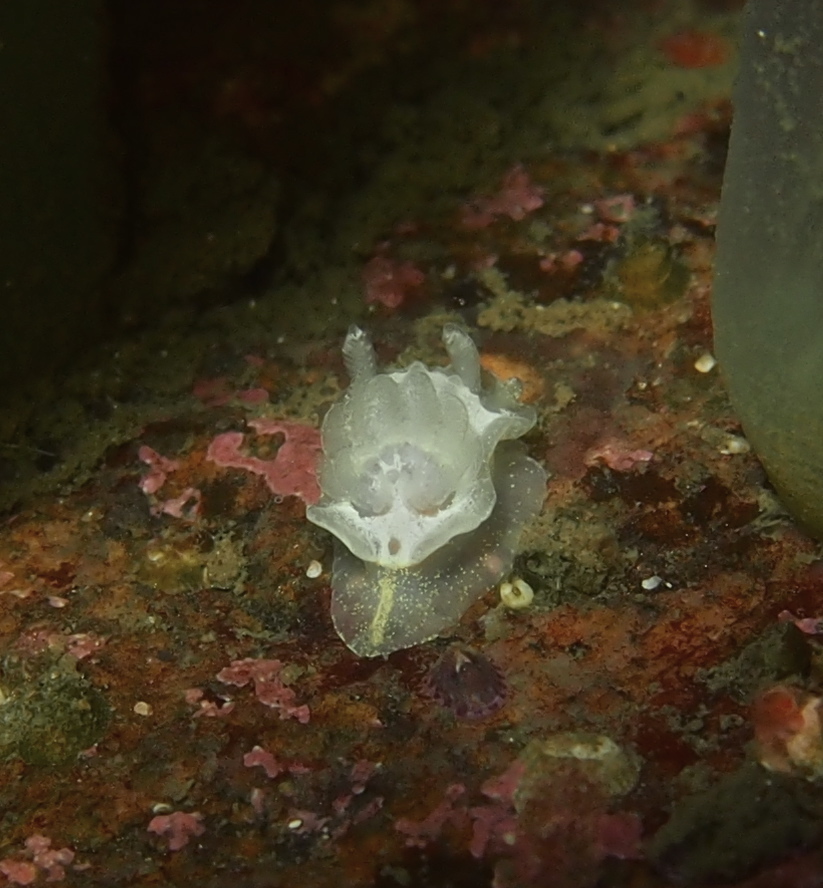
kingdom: Animalia
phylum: Mollusca
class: Gastropoda
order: Nudibranchia
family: Goniodorididae
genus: Okenia
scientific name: Okenia
